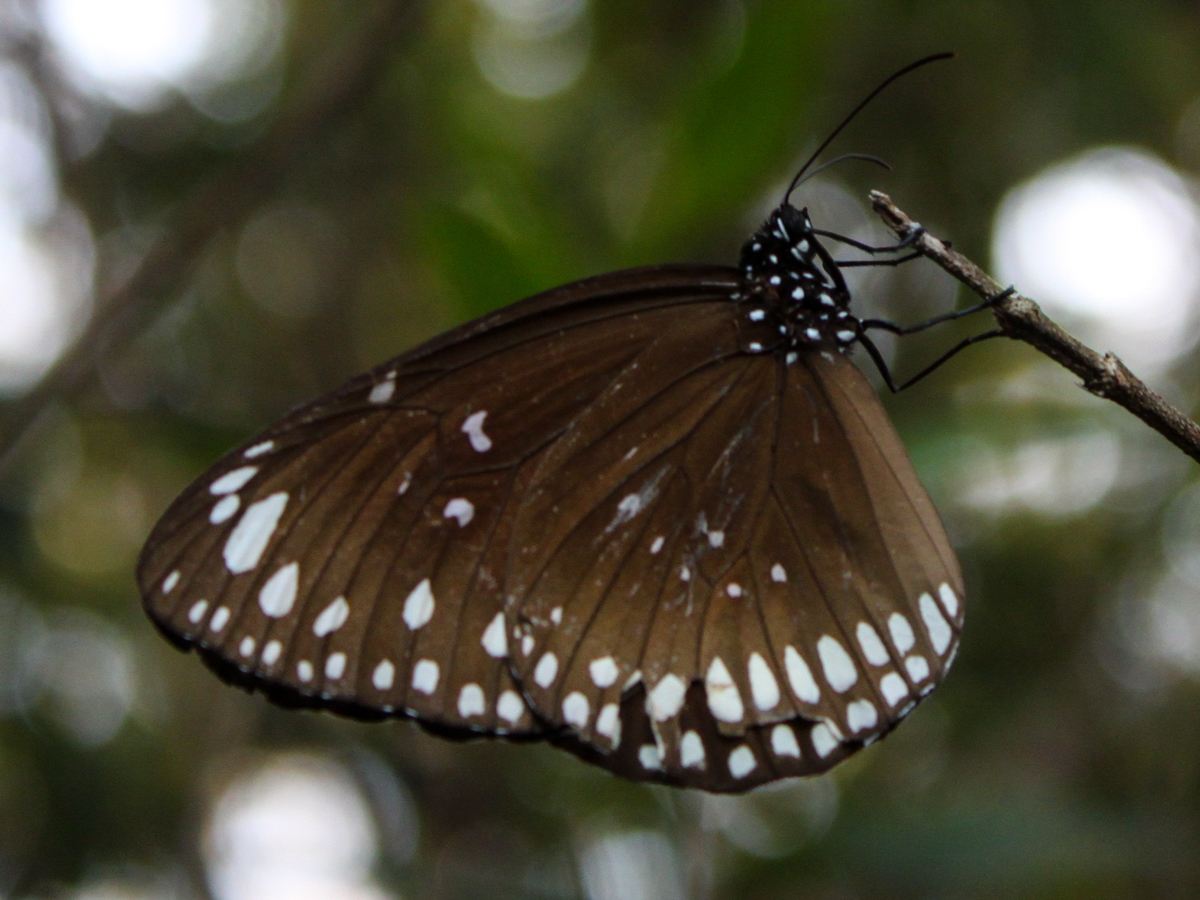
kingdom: Animalia
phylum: Arthropoda
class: Insecta
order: Lepidoptera
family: Nymphalidae
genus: Euploea
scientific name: Euploea crameri
